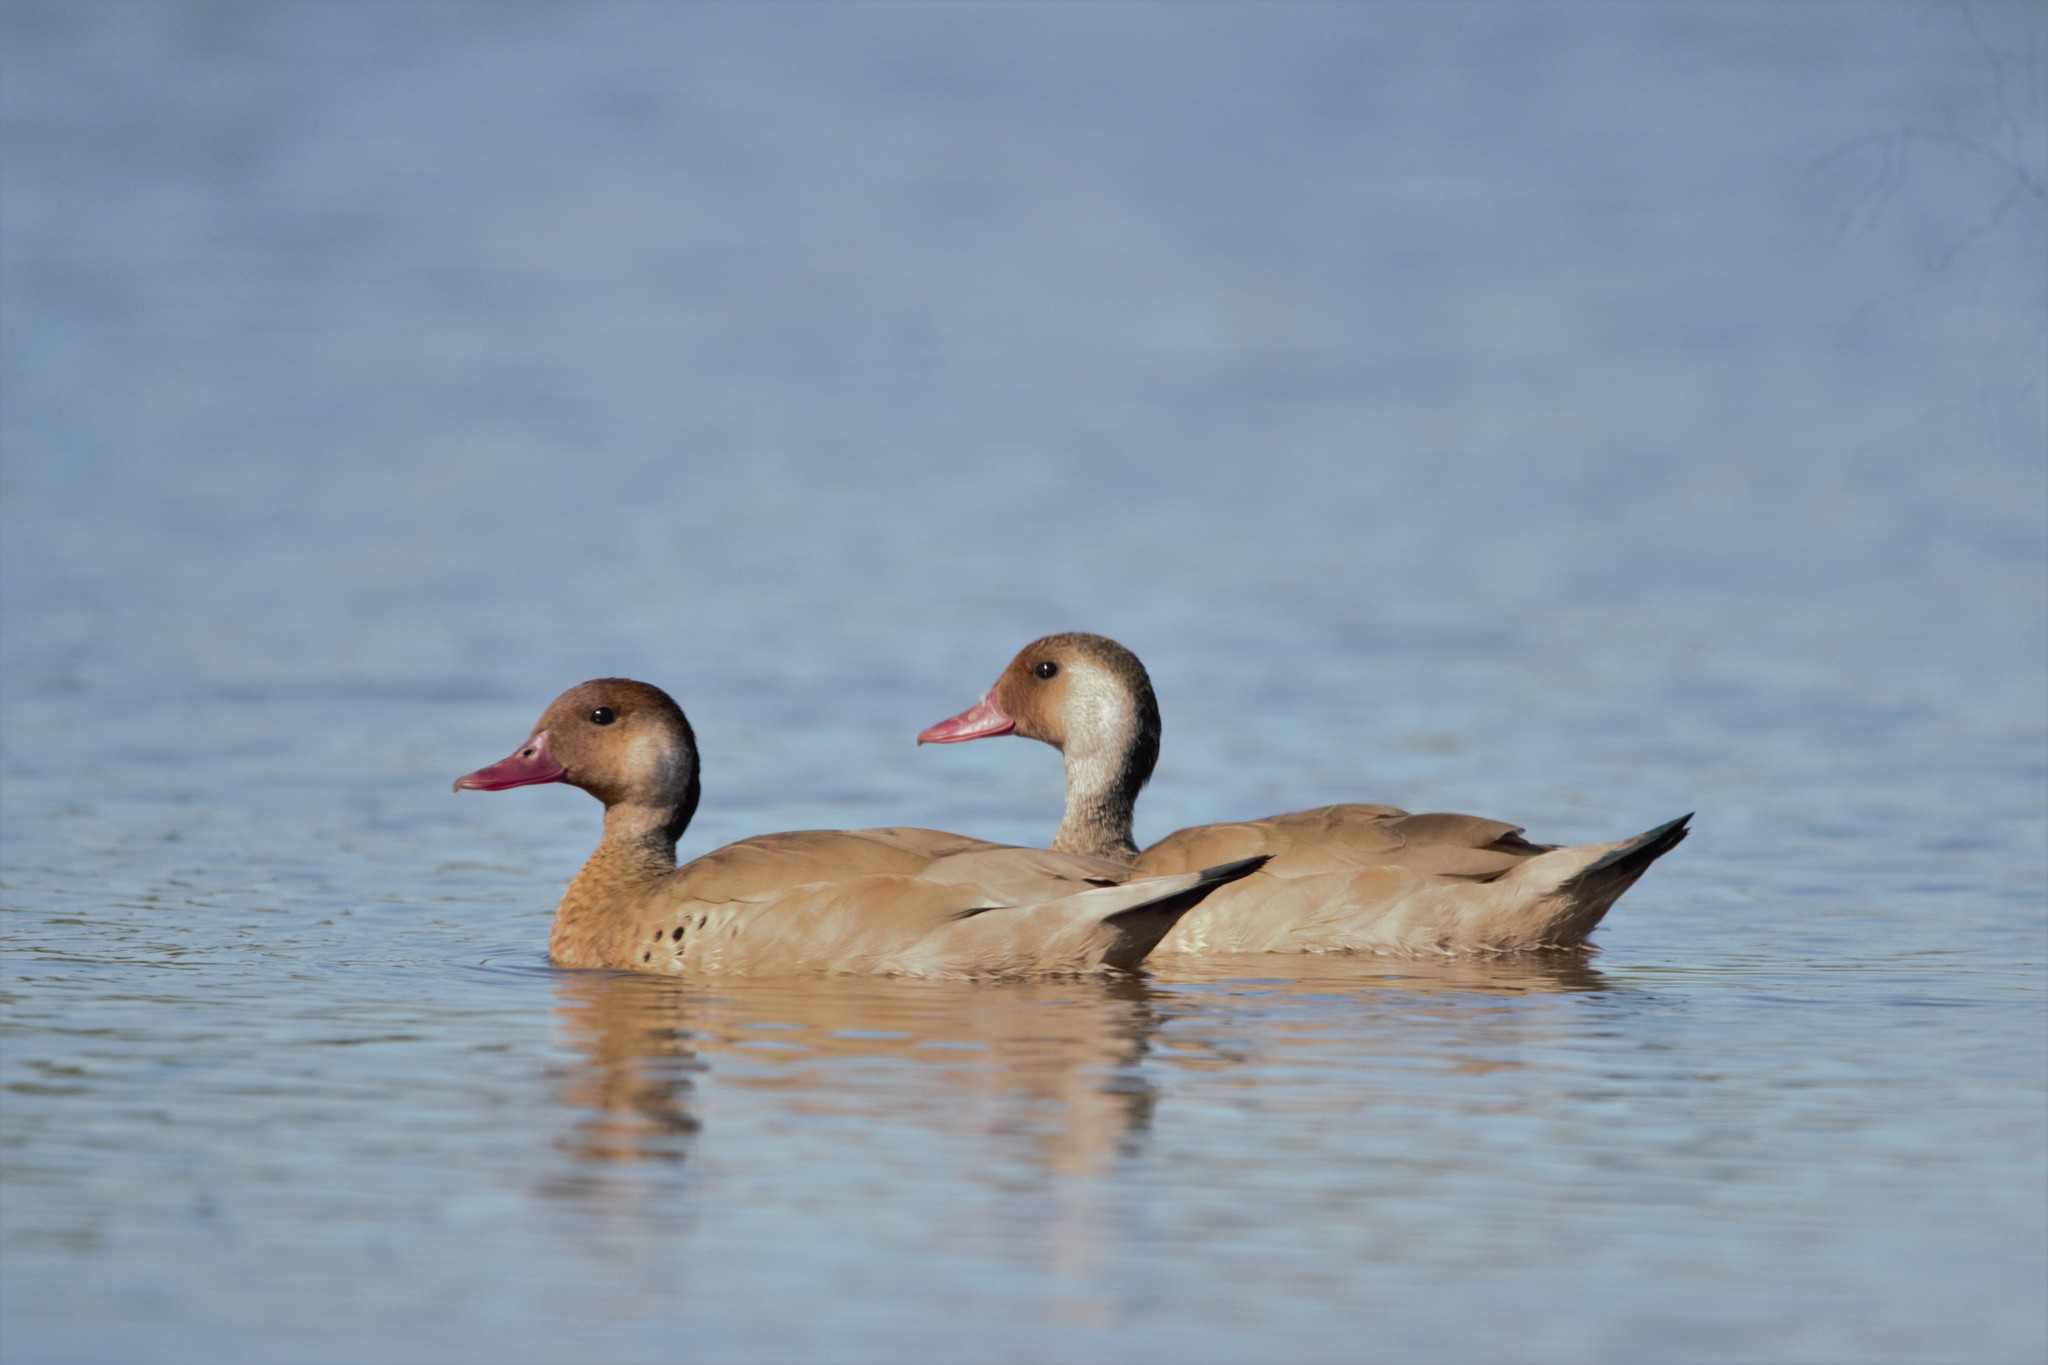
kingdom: Animalia
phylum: Chordata
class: Aves
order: Anseriformes
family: Anatidae
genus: Amazonetta
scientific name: Amazonetta brasiliensis
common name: Brazilian teal
